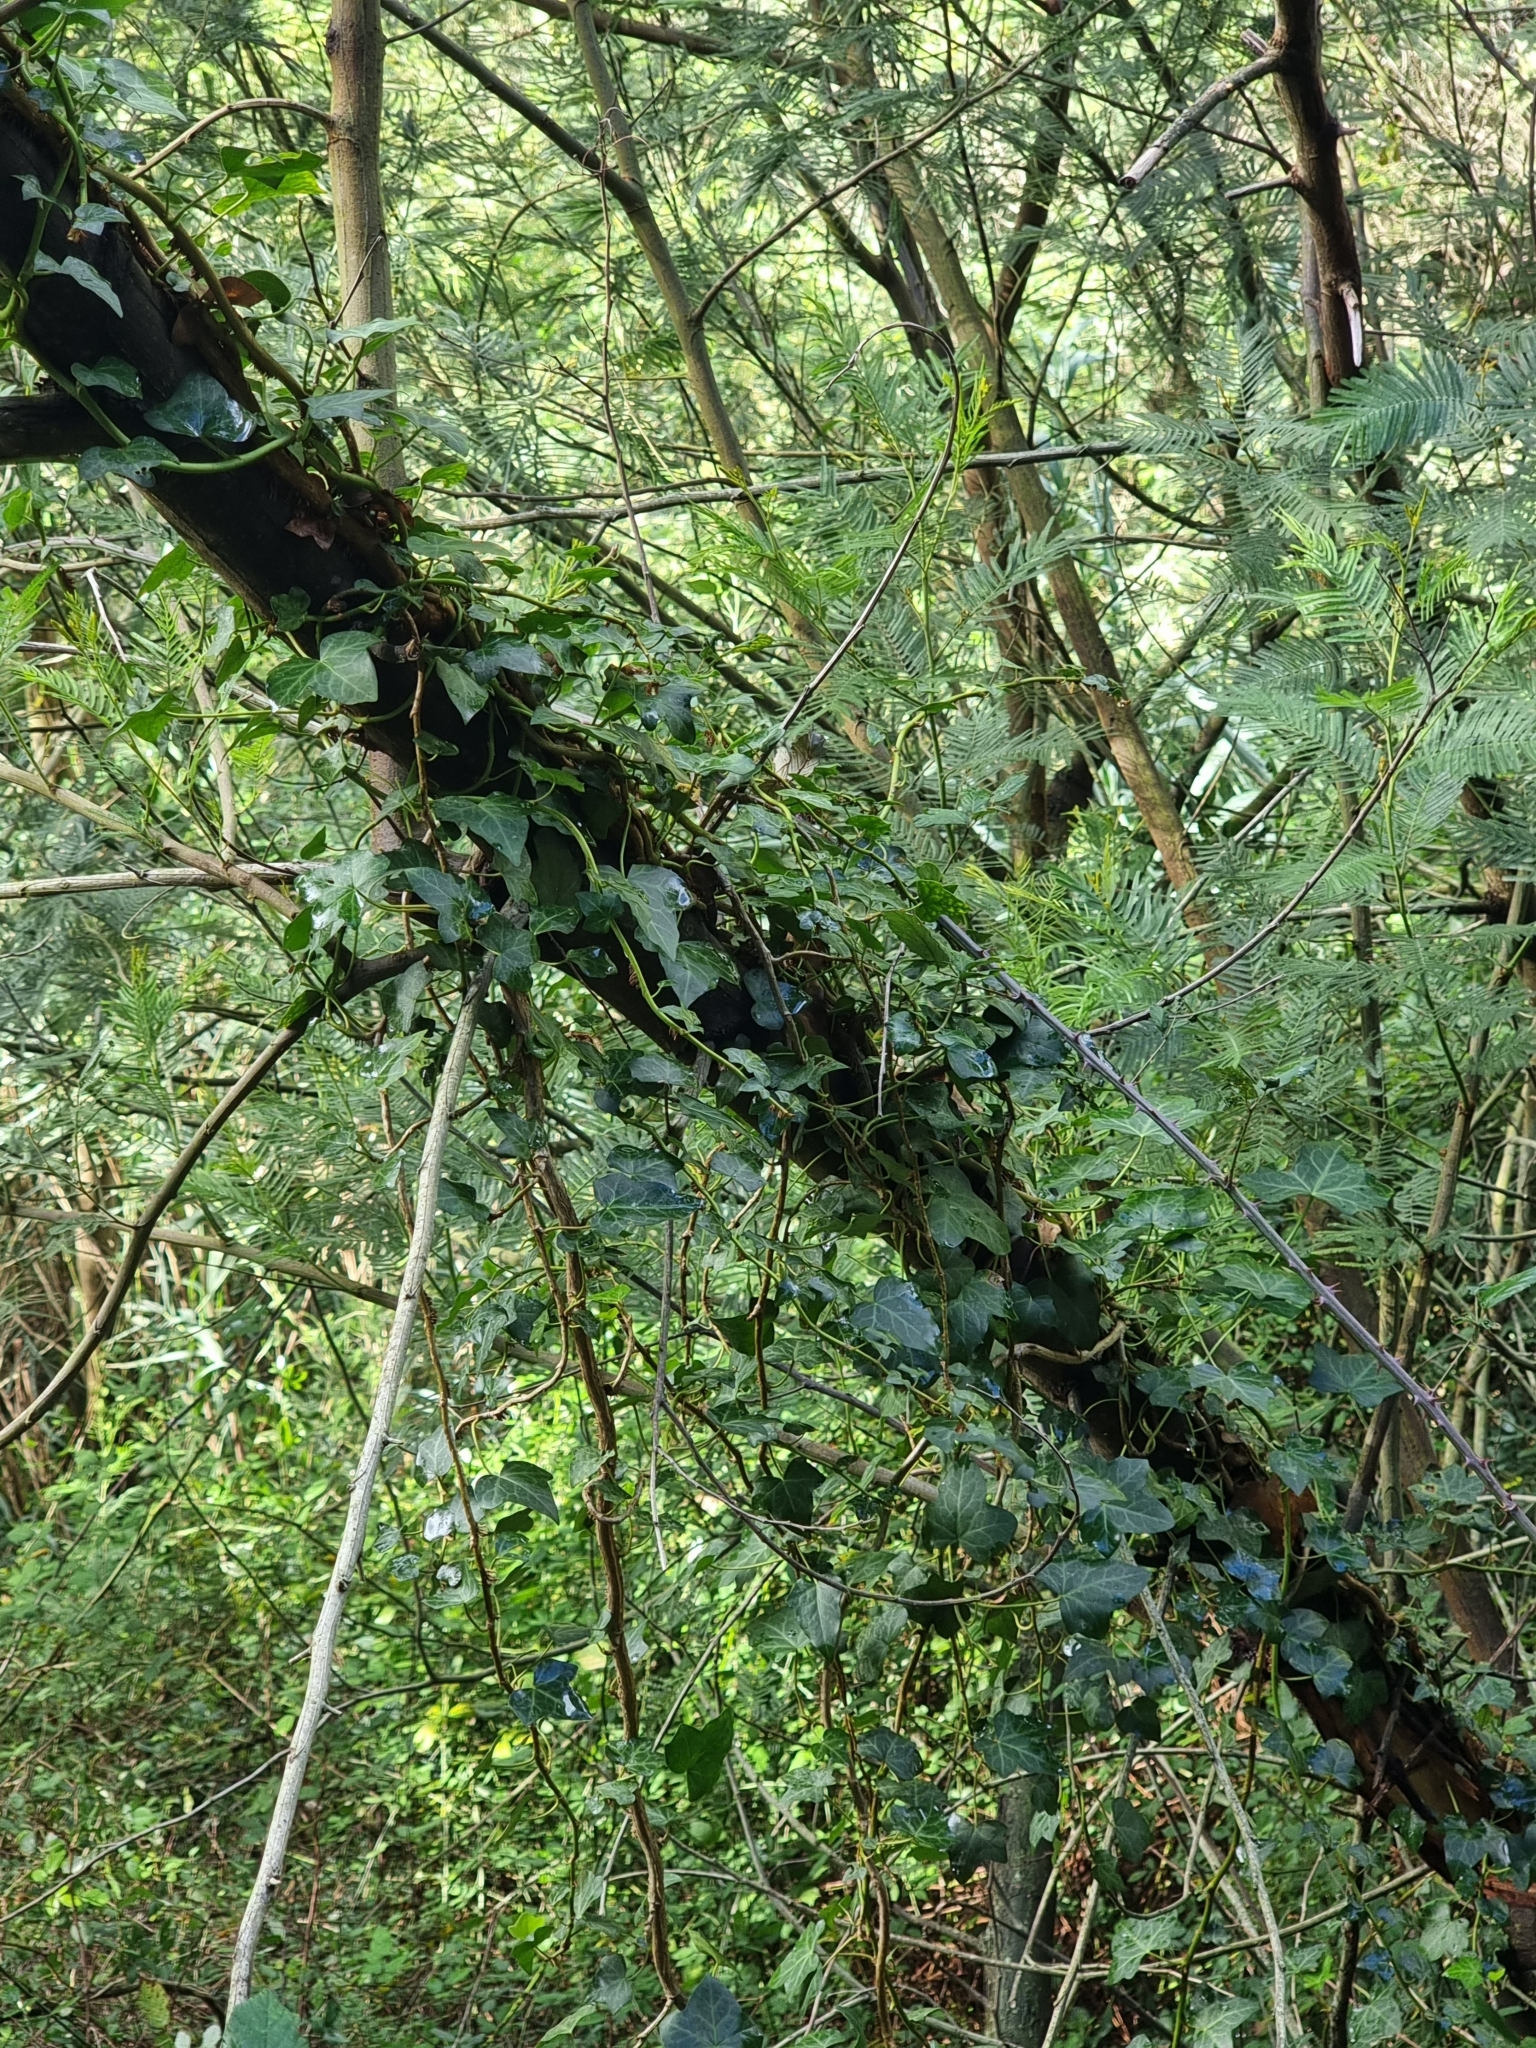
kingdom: Plantae
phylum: Tracheophyta
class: Magnoliopsida
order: Apiales
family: Araliaceae
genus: Hedera
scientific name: Hedera maderensis
